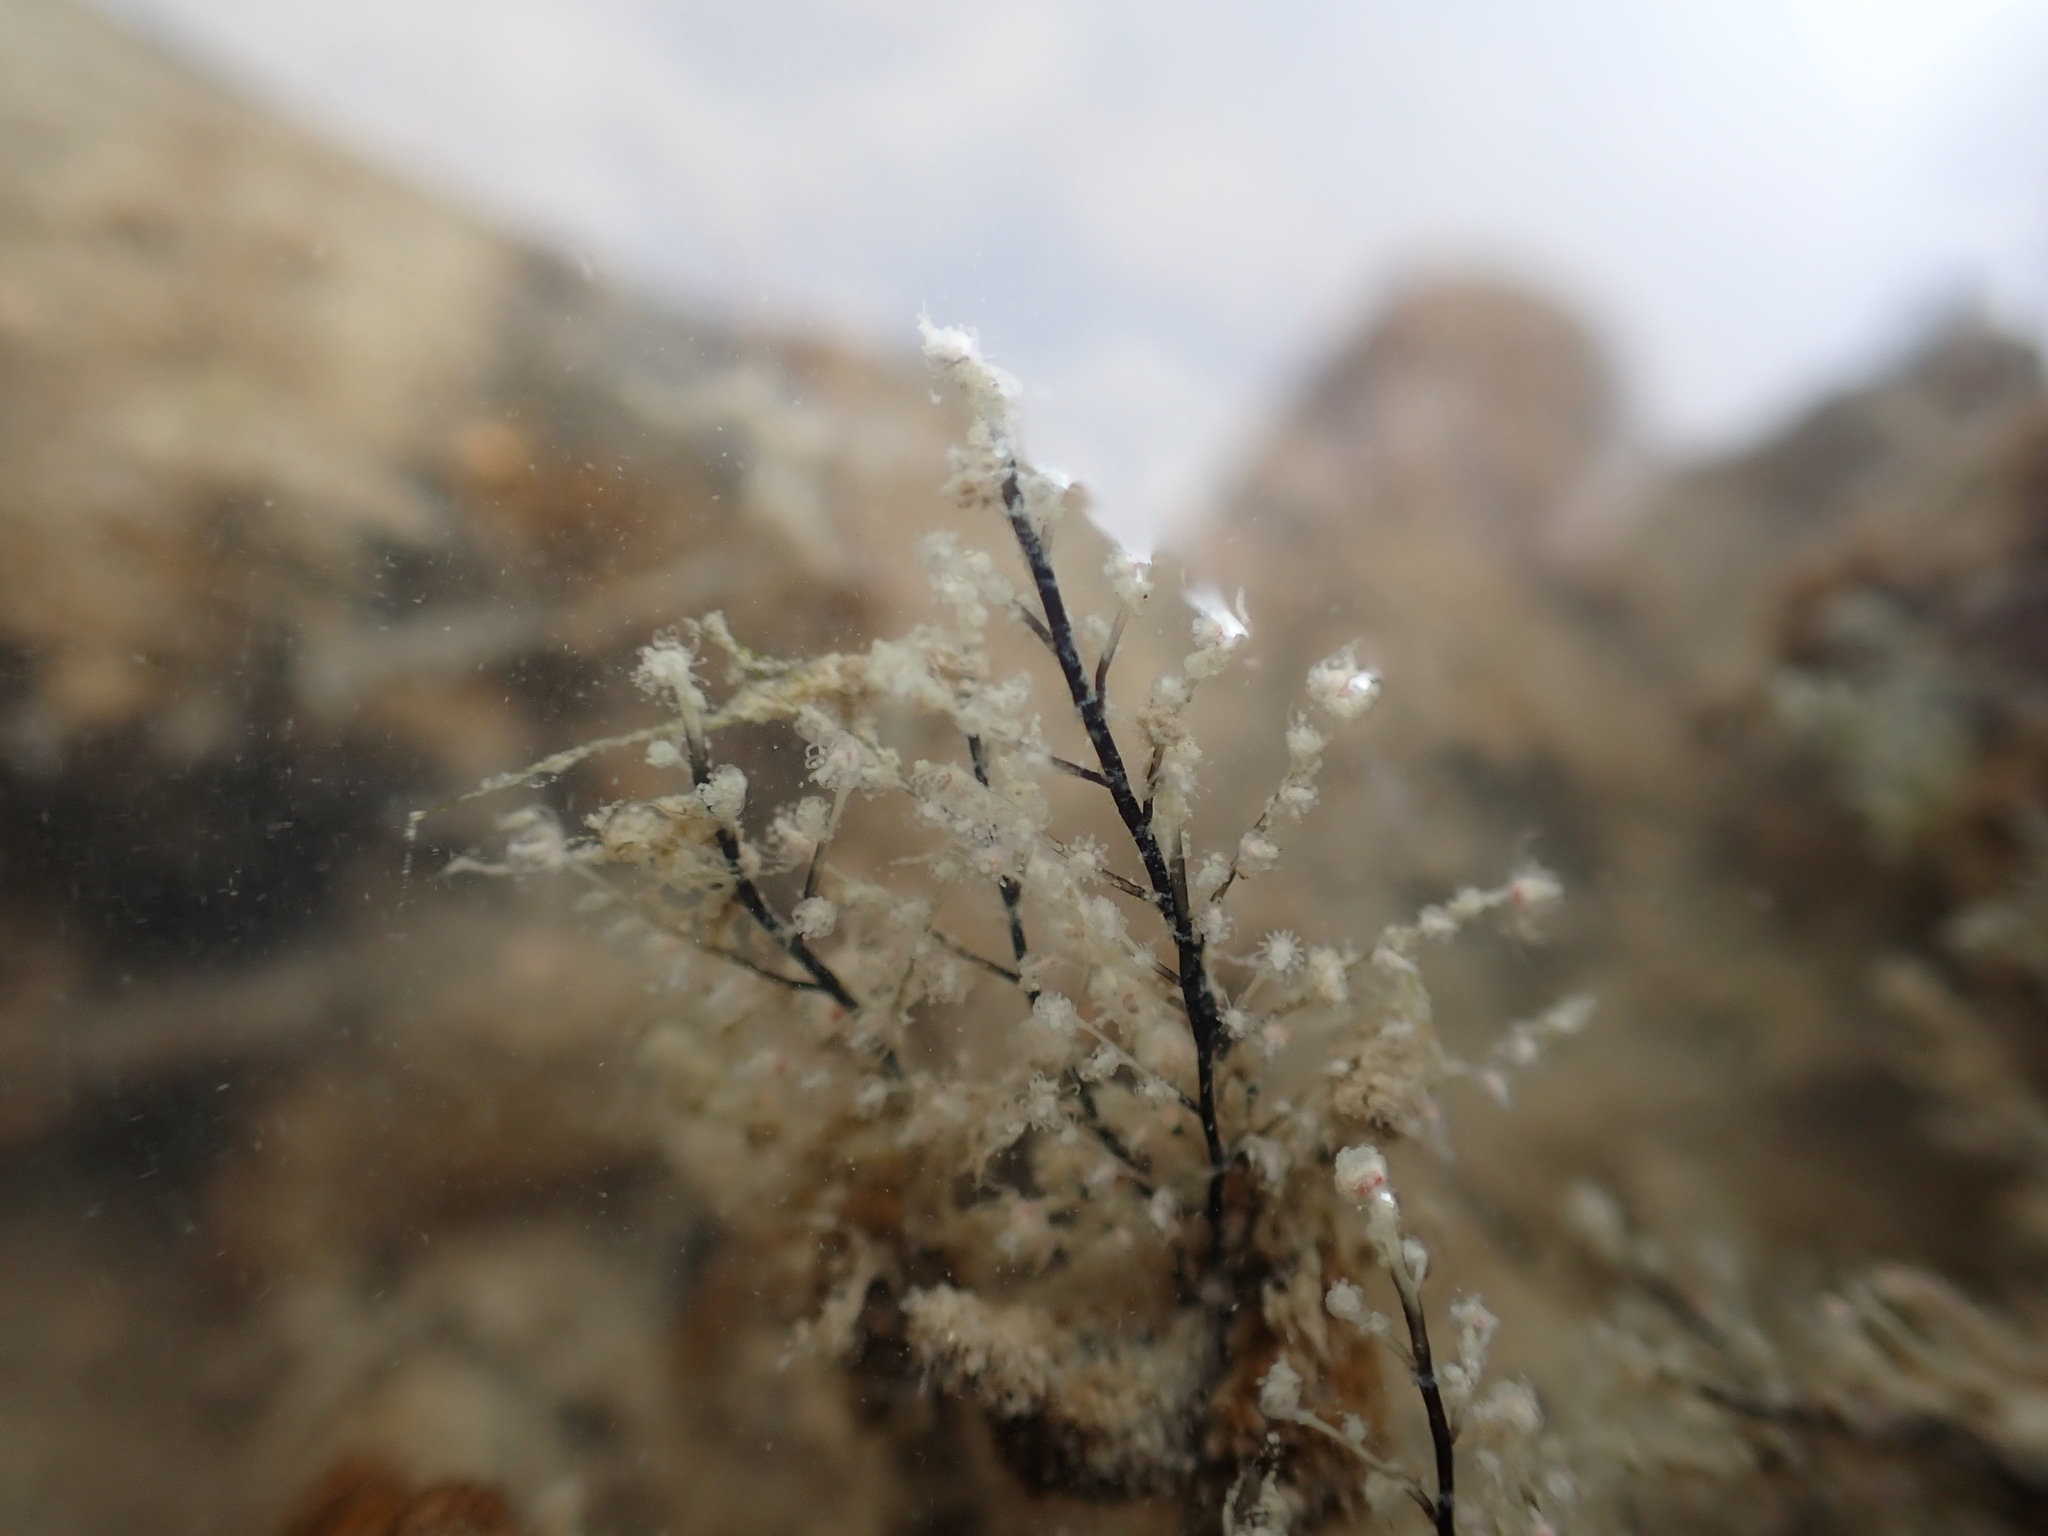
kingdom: Animalia
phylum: Cnidaria
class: Hydrozoa
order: Anthoathecata
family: Pennariidae
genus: Pennaria
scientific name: Pennaria disticha
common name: Feather hydroid
